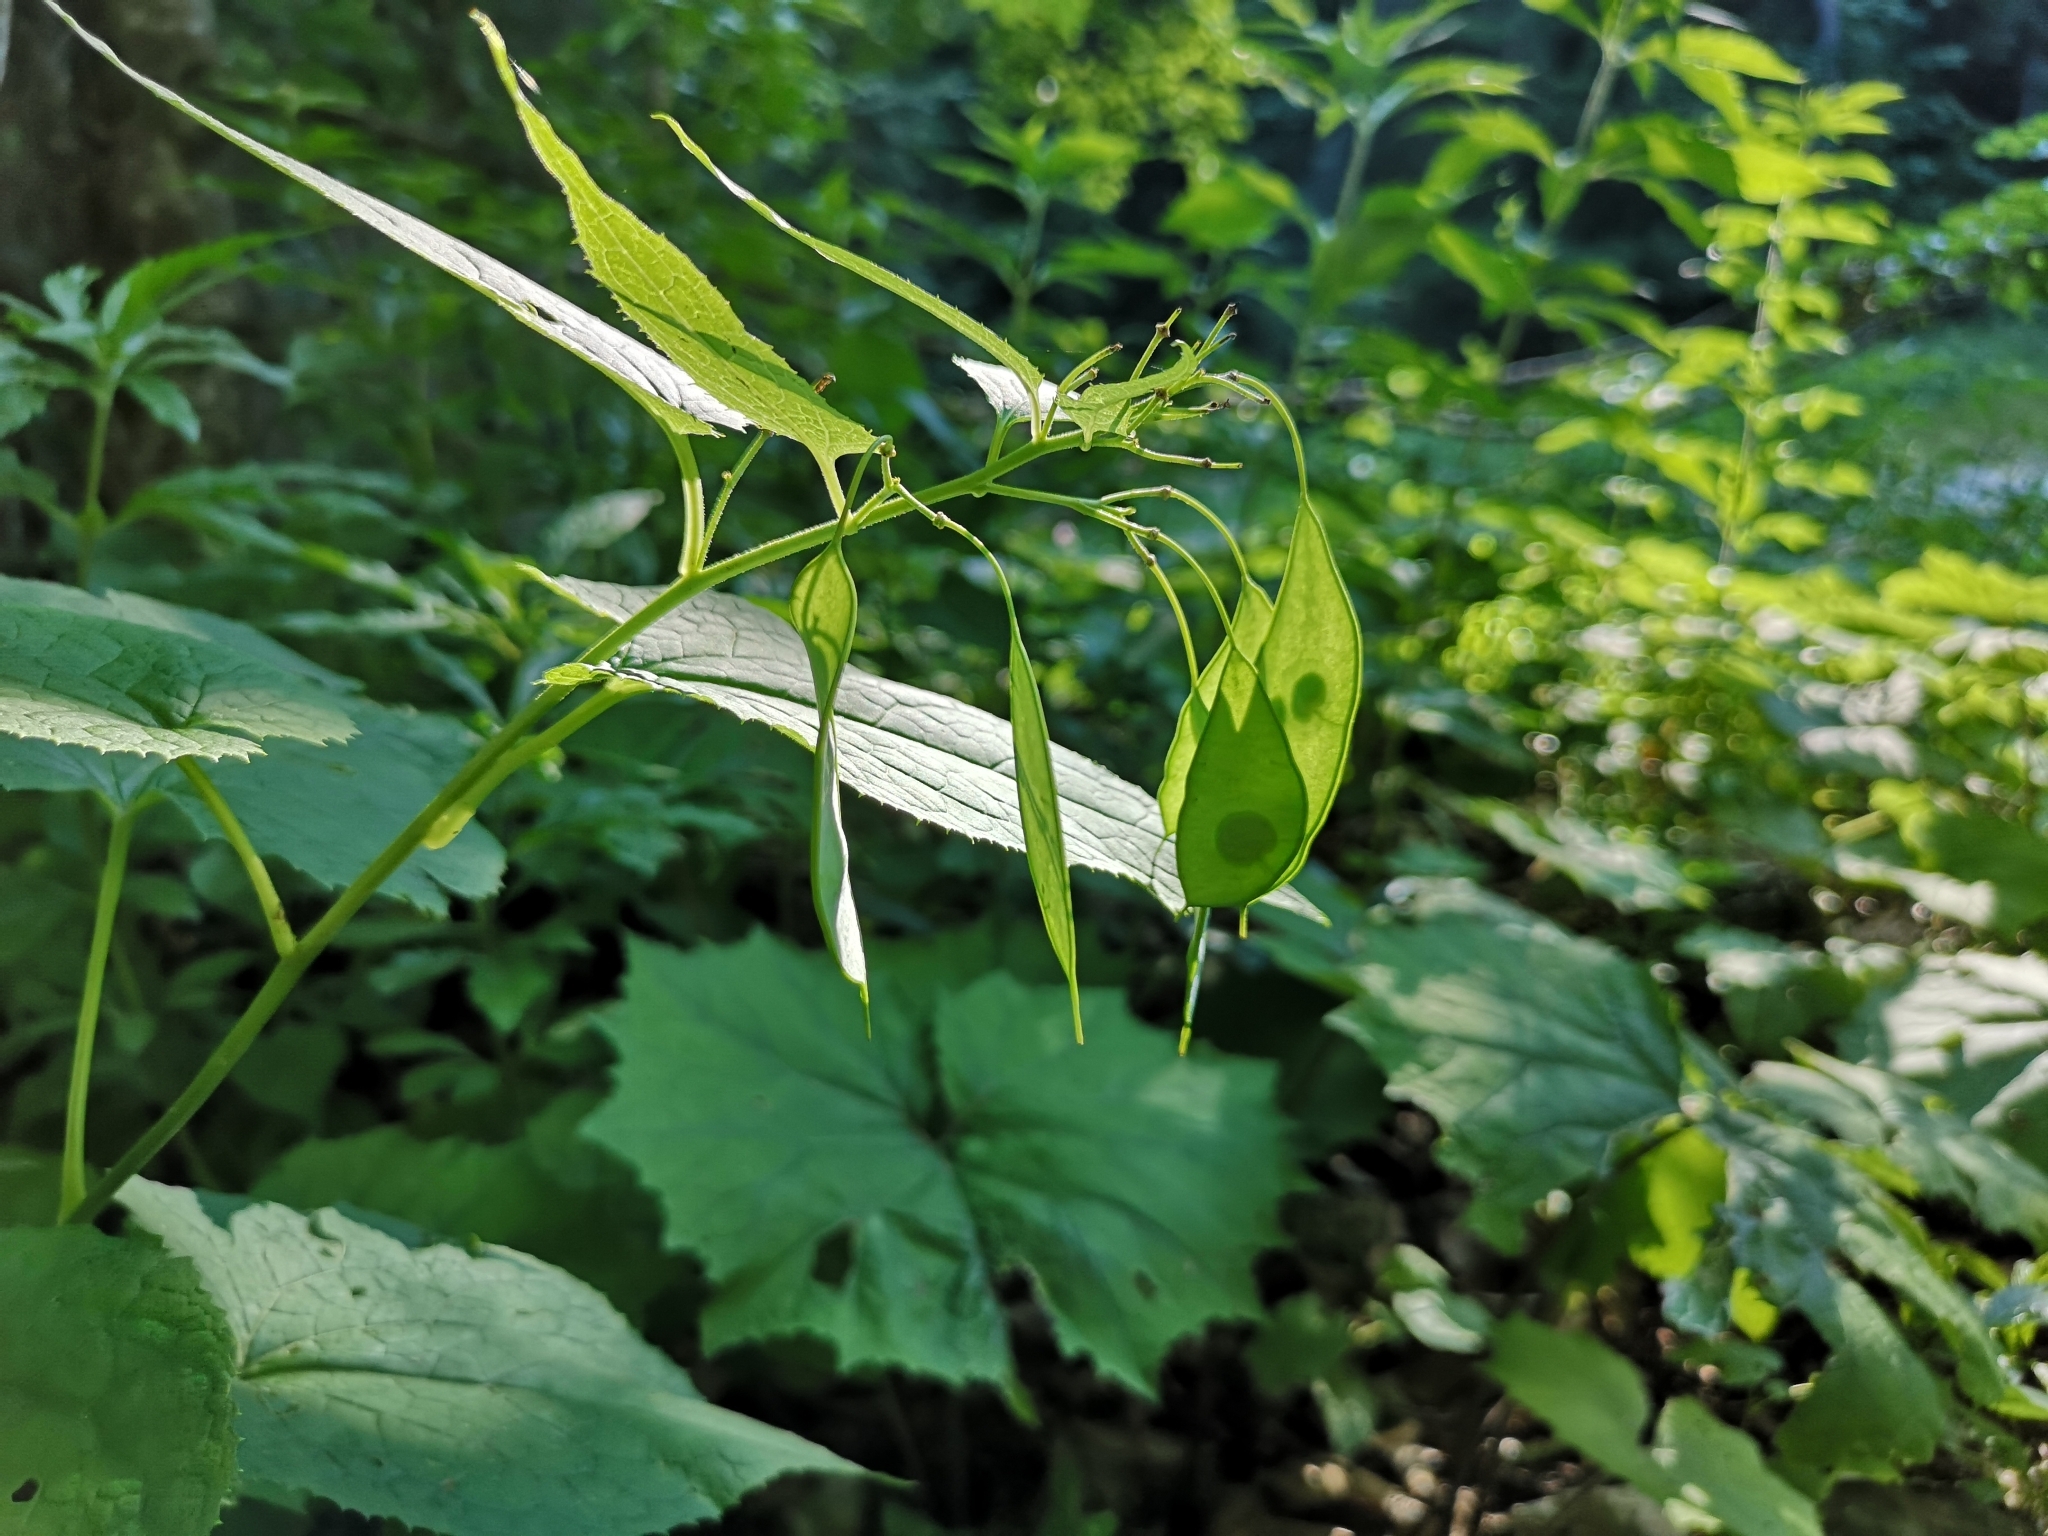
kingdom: Plantae
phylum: Tracheophyta
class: Magnoliopsida
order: Brassicales
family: Brassicaceae
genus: Lunaria
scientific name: Lunaria rediviva
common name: Perennial honesty
